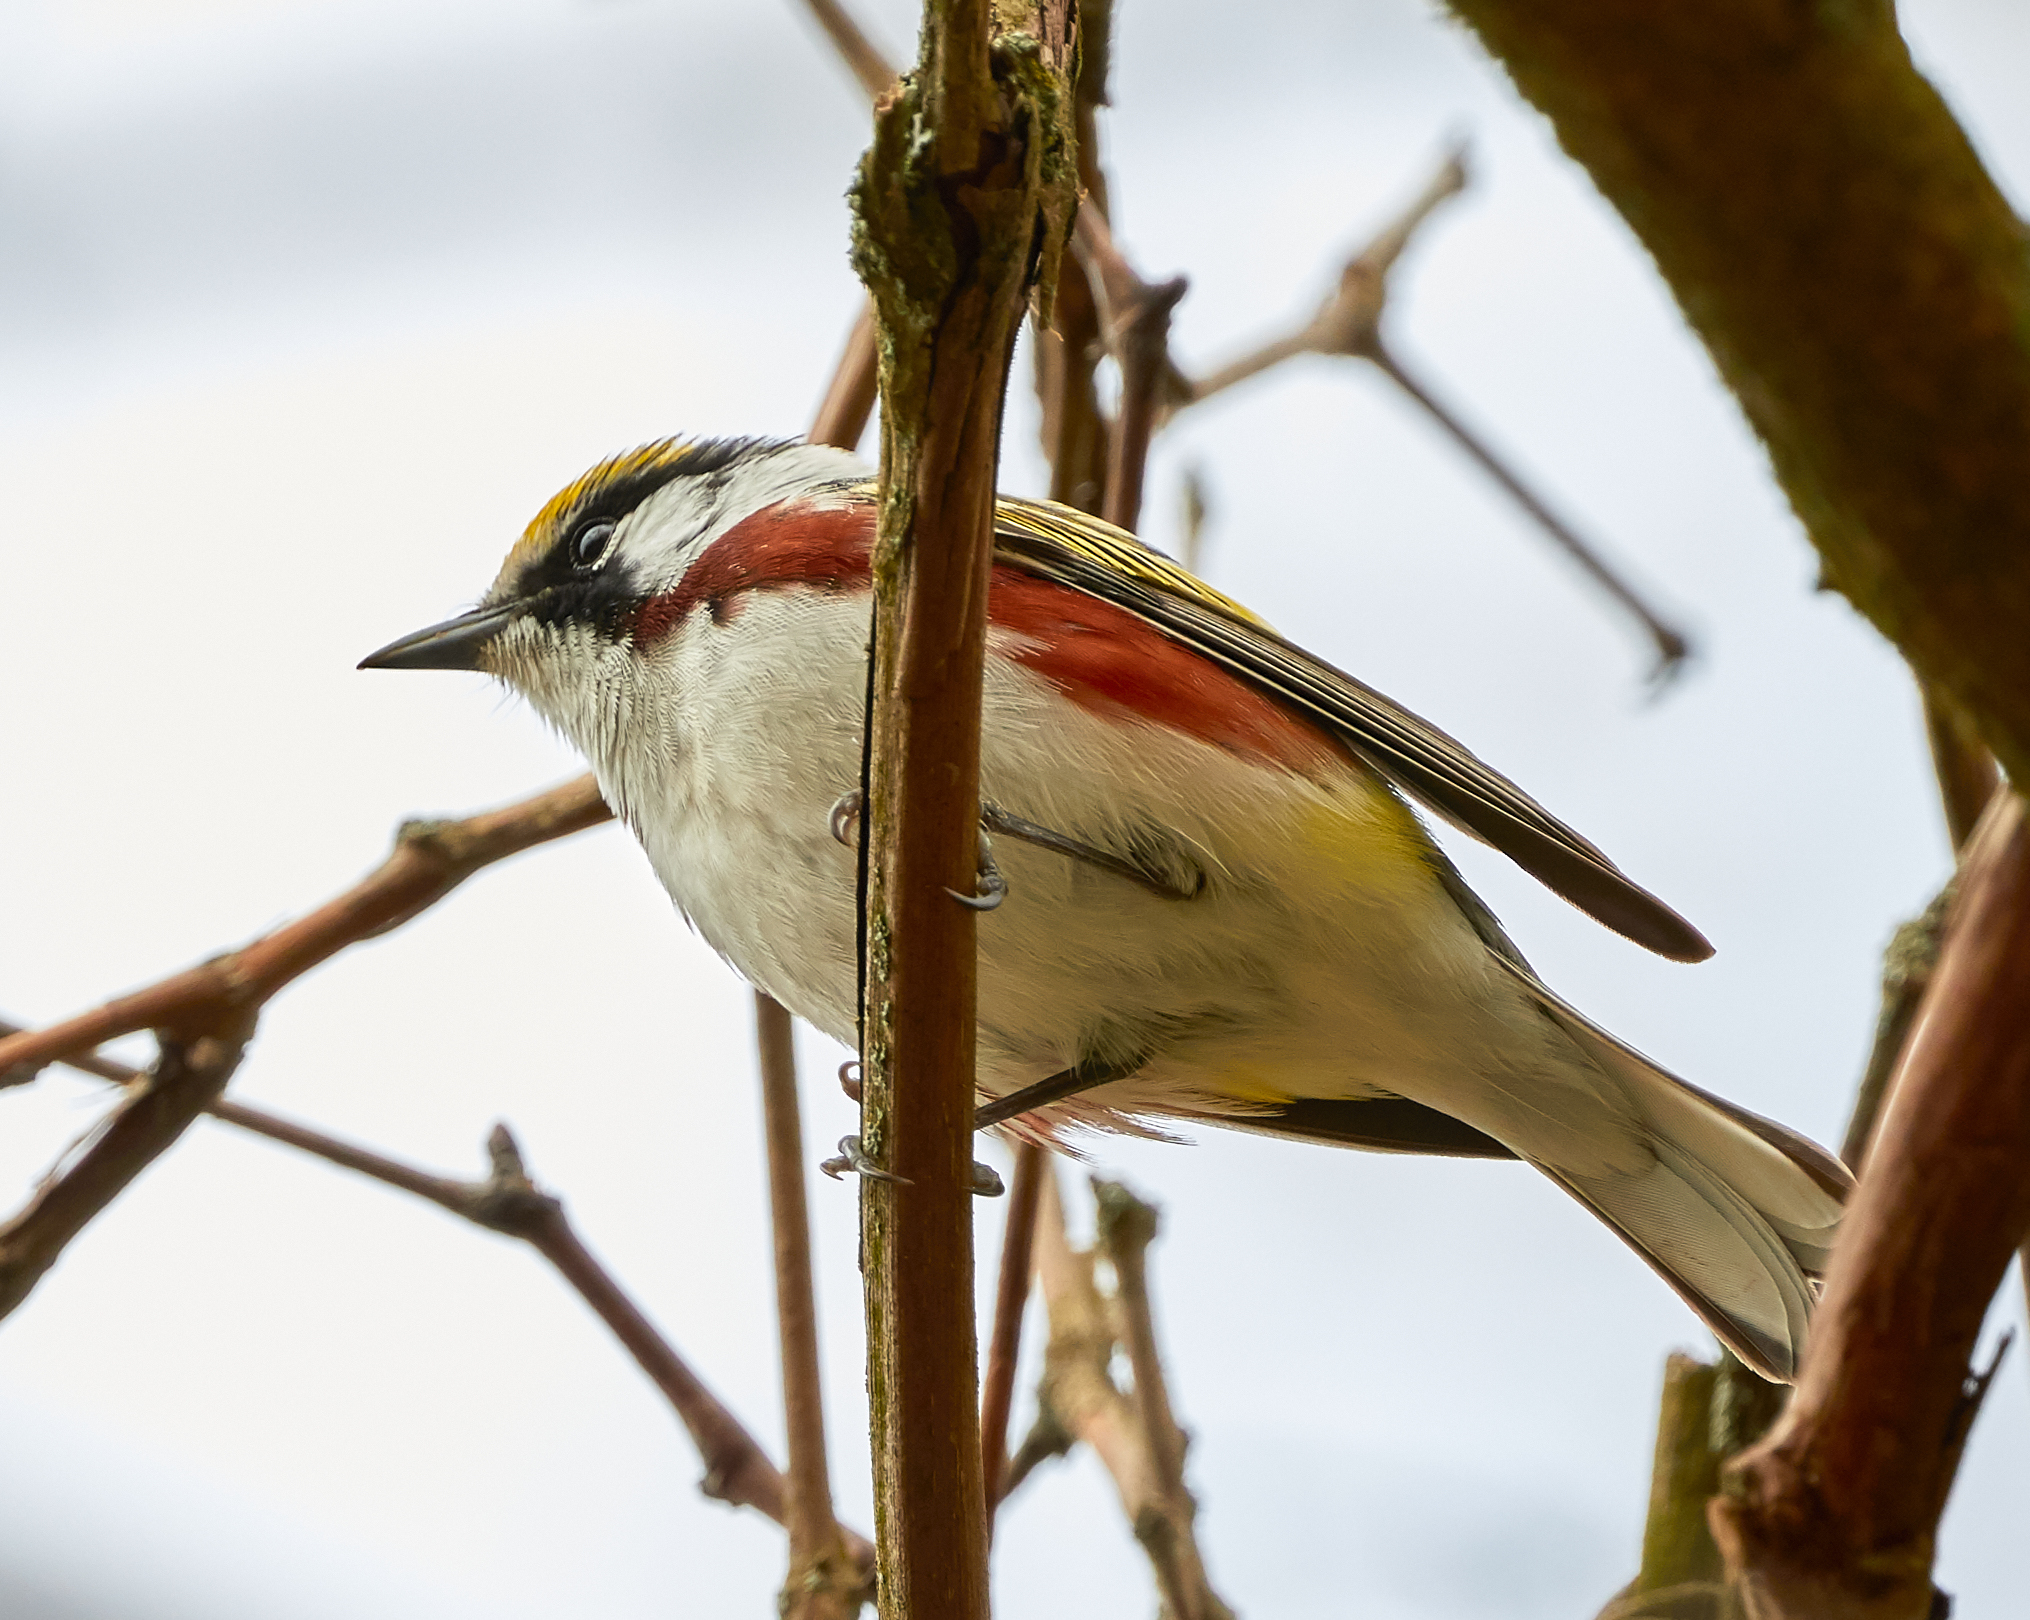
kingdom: Animalia
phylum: Chordata
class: Aves
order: Passeriformes
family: Parulidae
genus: Setophaga
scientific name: Setophaga pensylvanica
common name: Chestnut-sided warbler
